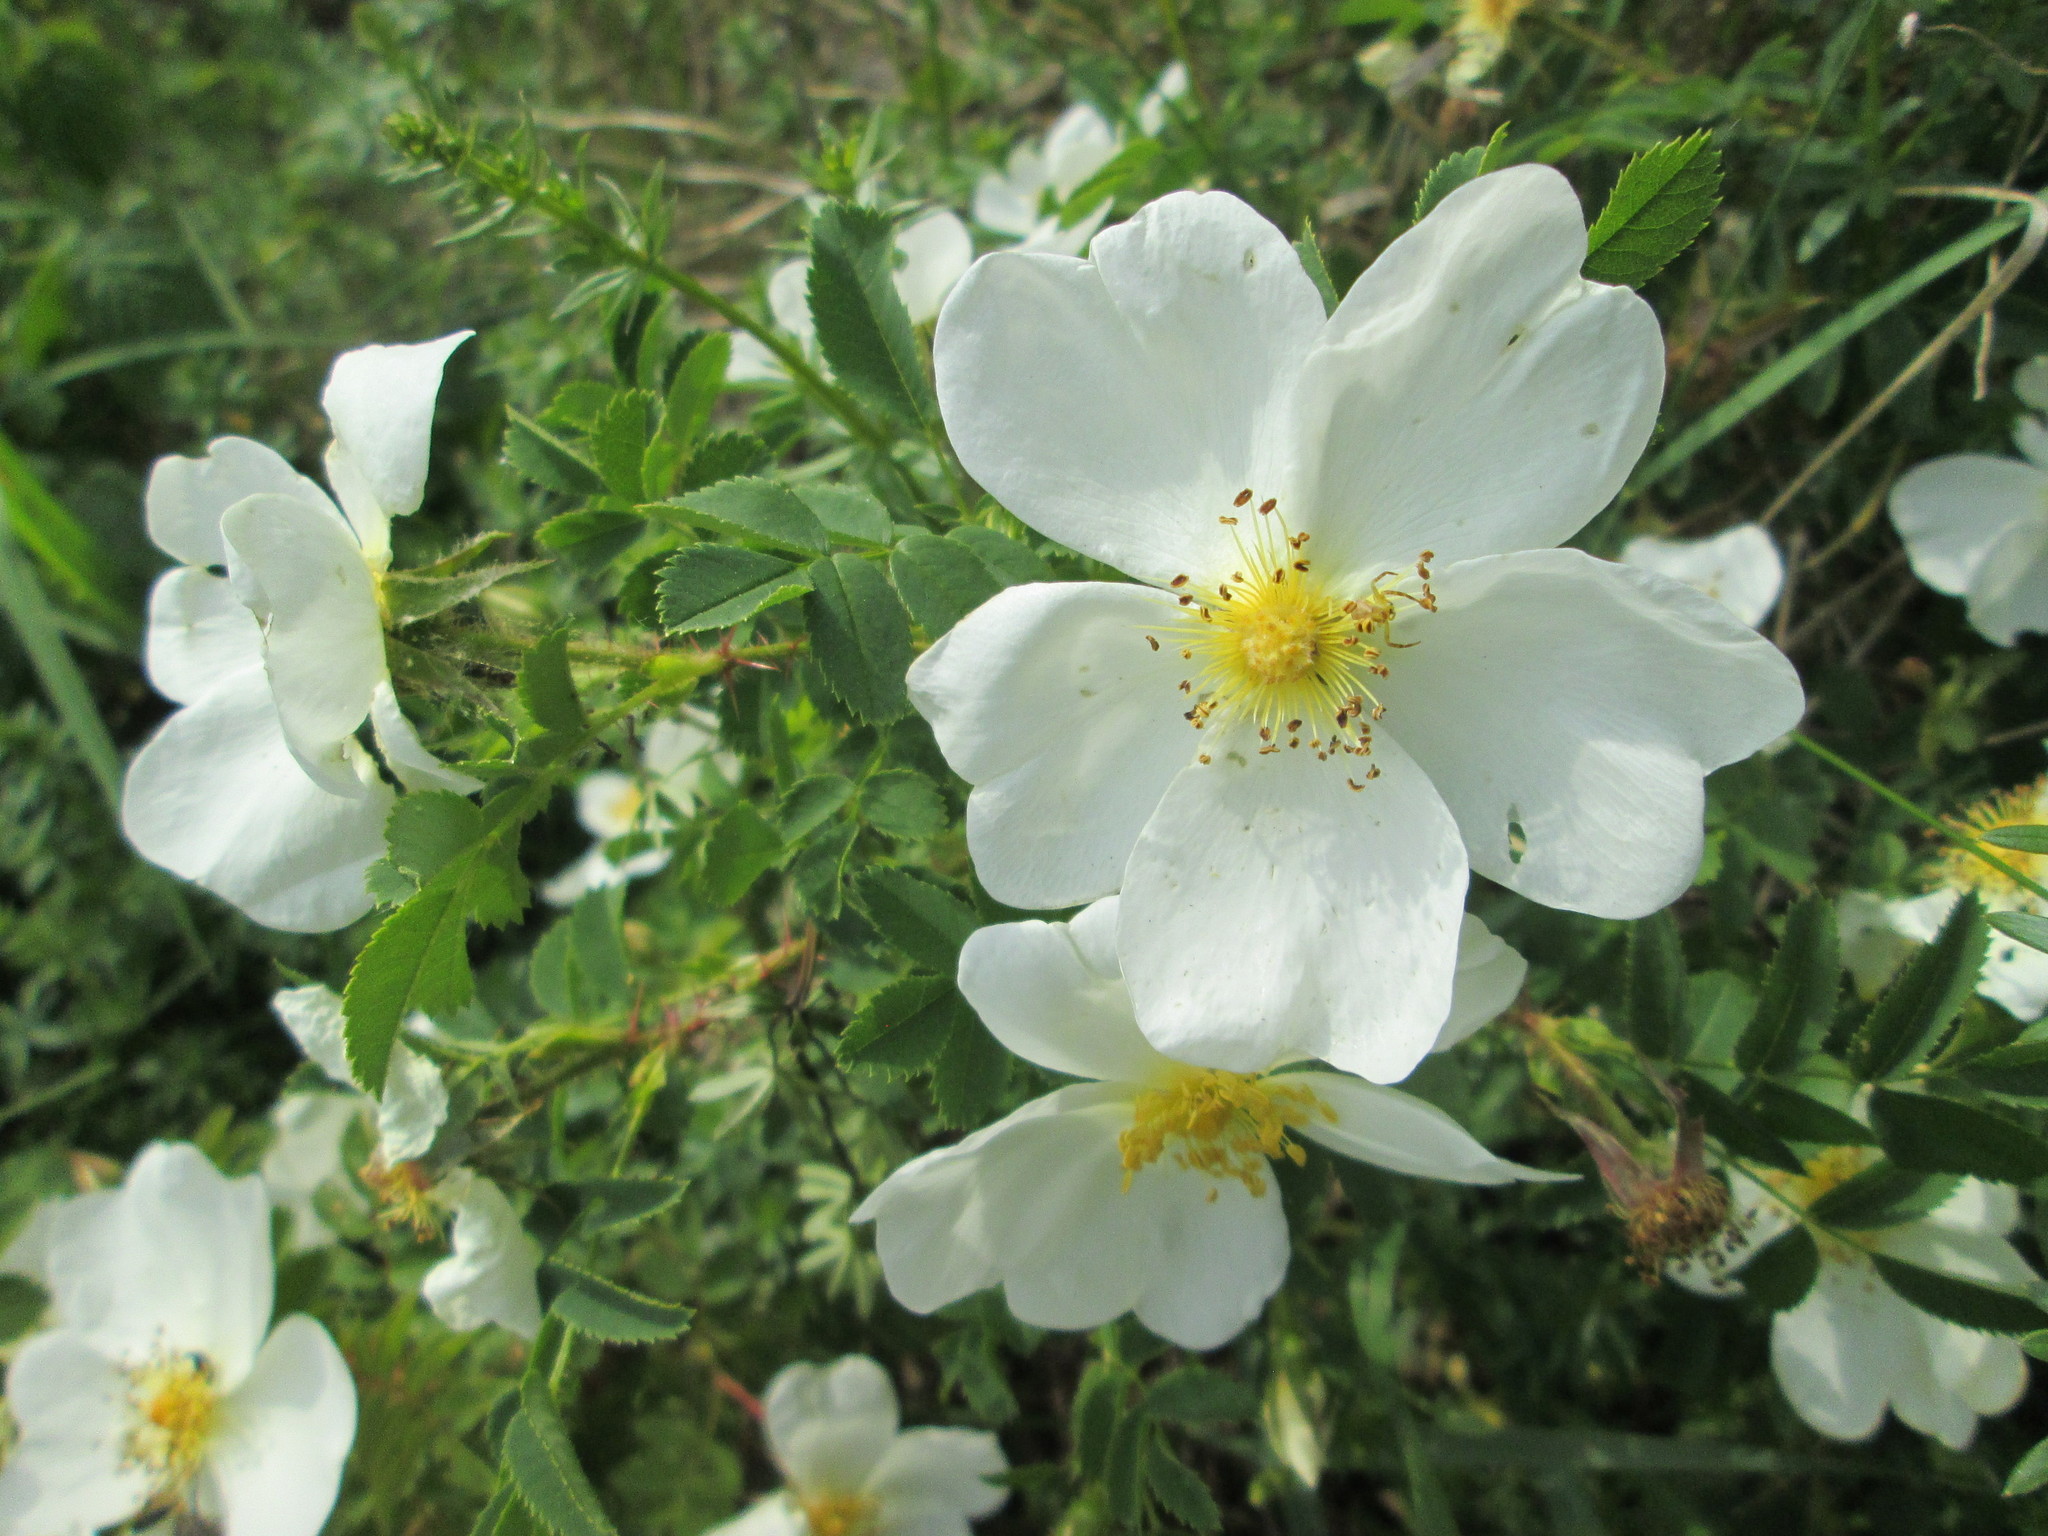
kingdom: Plantae
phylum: Tracheophyta
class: Magnoliopsida
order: Rosales
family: Rosaceae
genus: Rosa
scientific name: Rosa spinosissima
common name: Burnet rose
